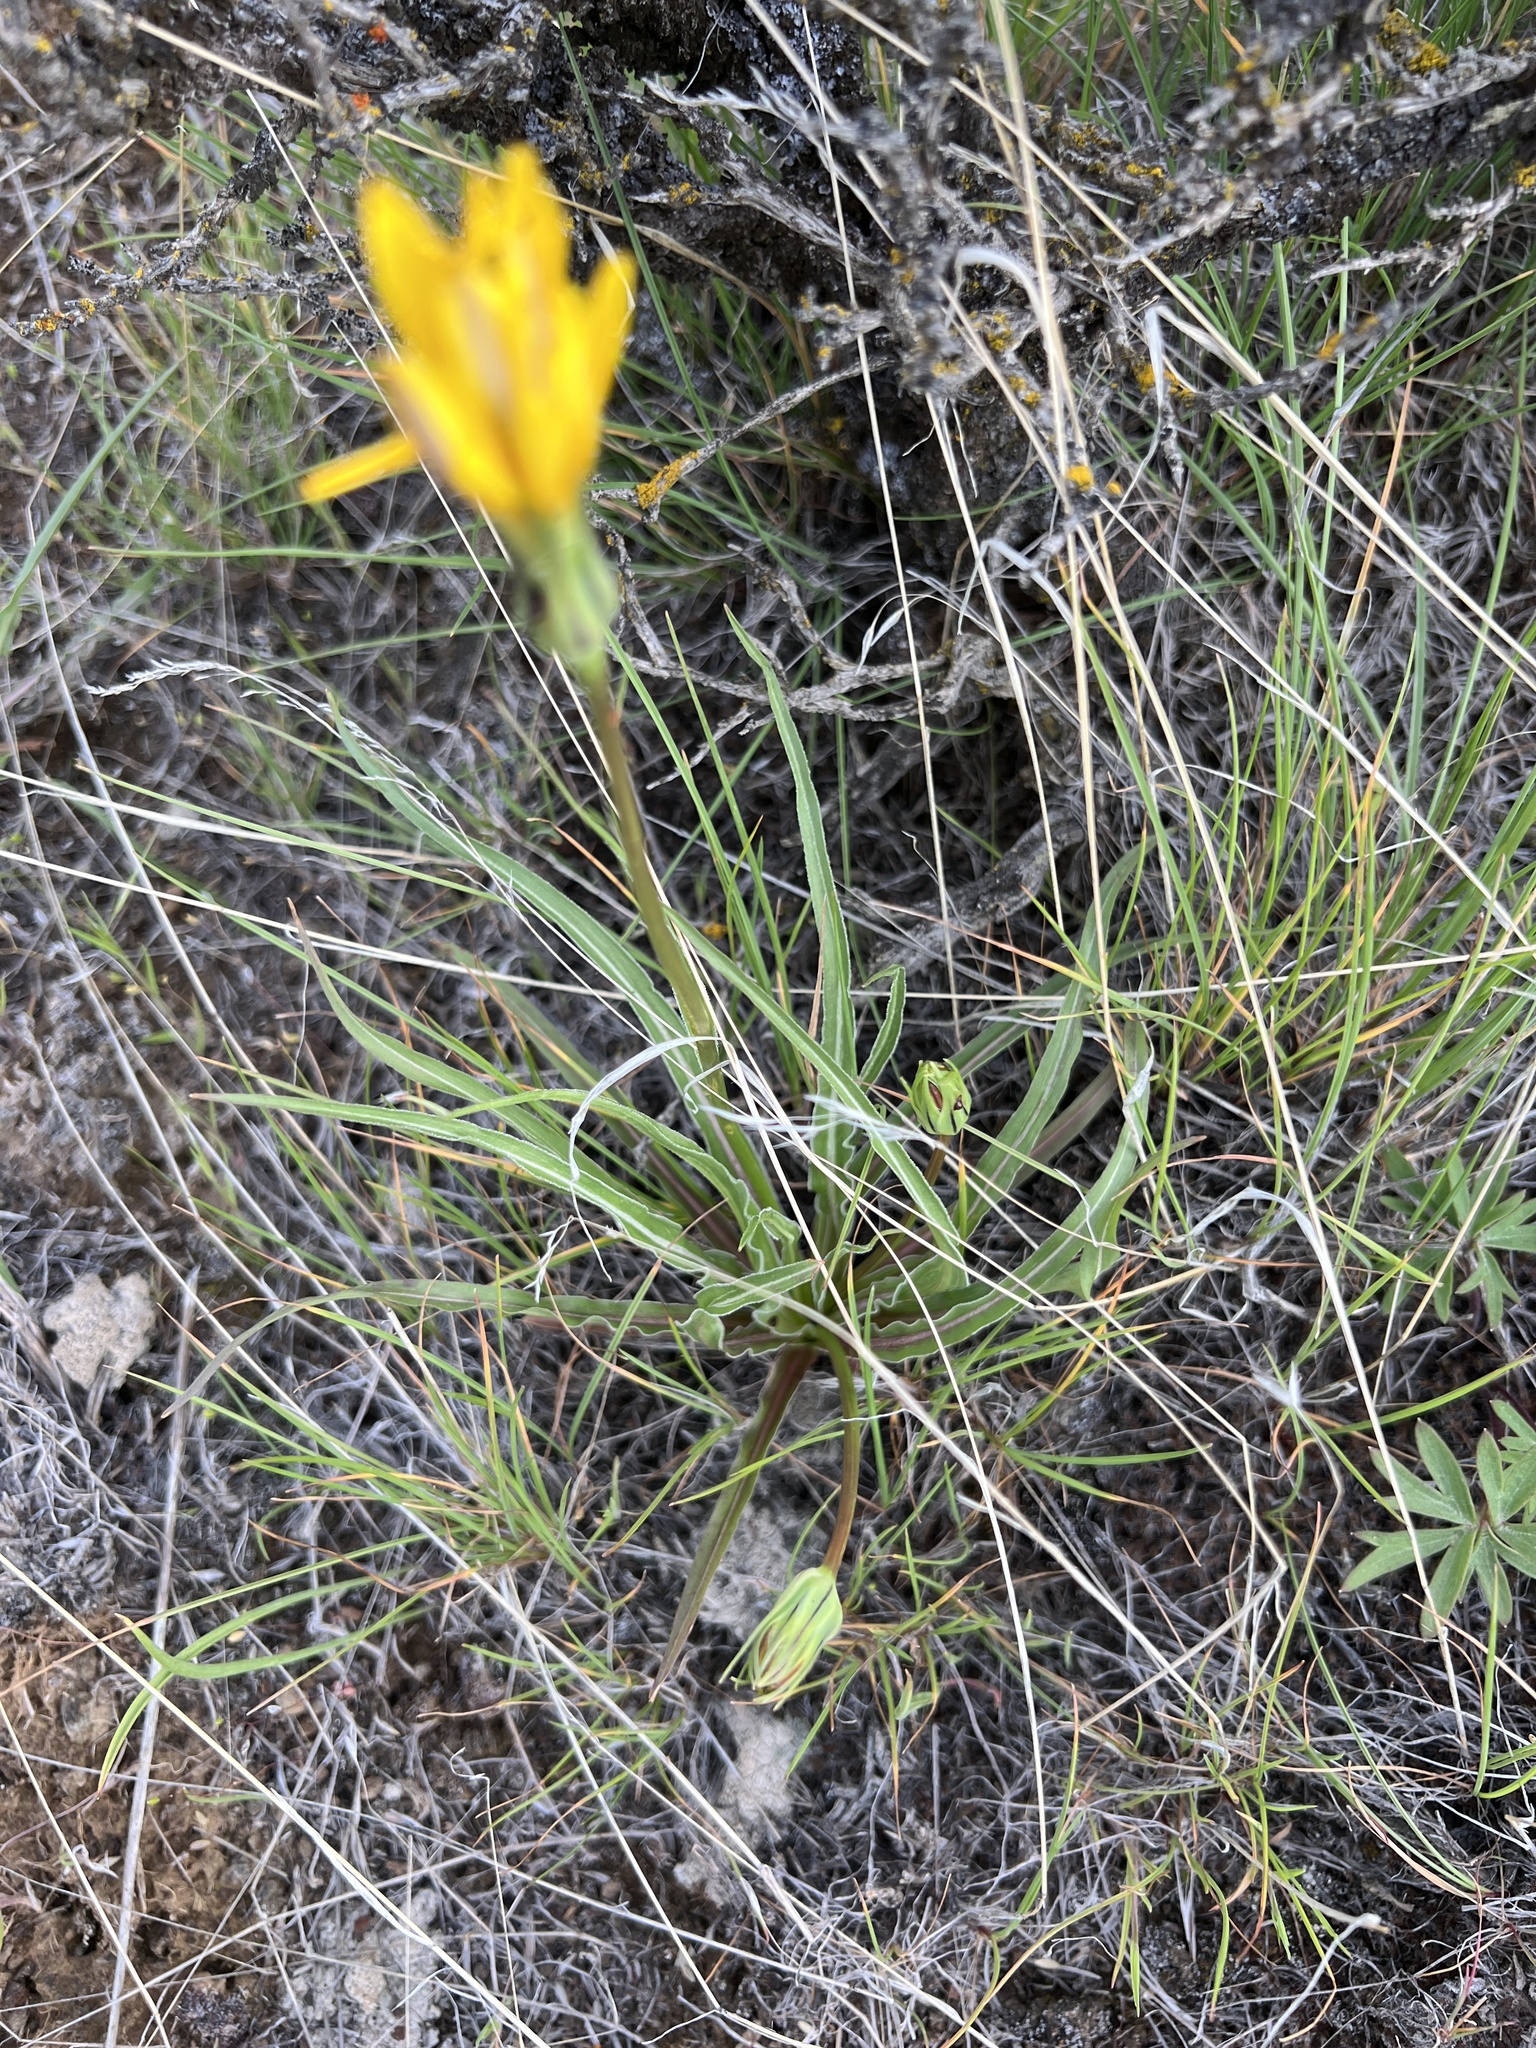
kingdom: Plantae
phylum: Tracheophyta
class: Magnoliopsida
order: Asterales
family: Asteraceae
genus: Microseris
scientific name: Microseris troximoides
